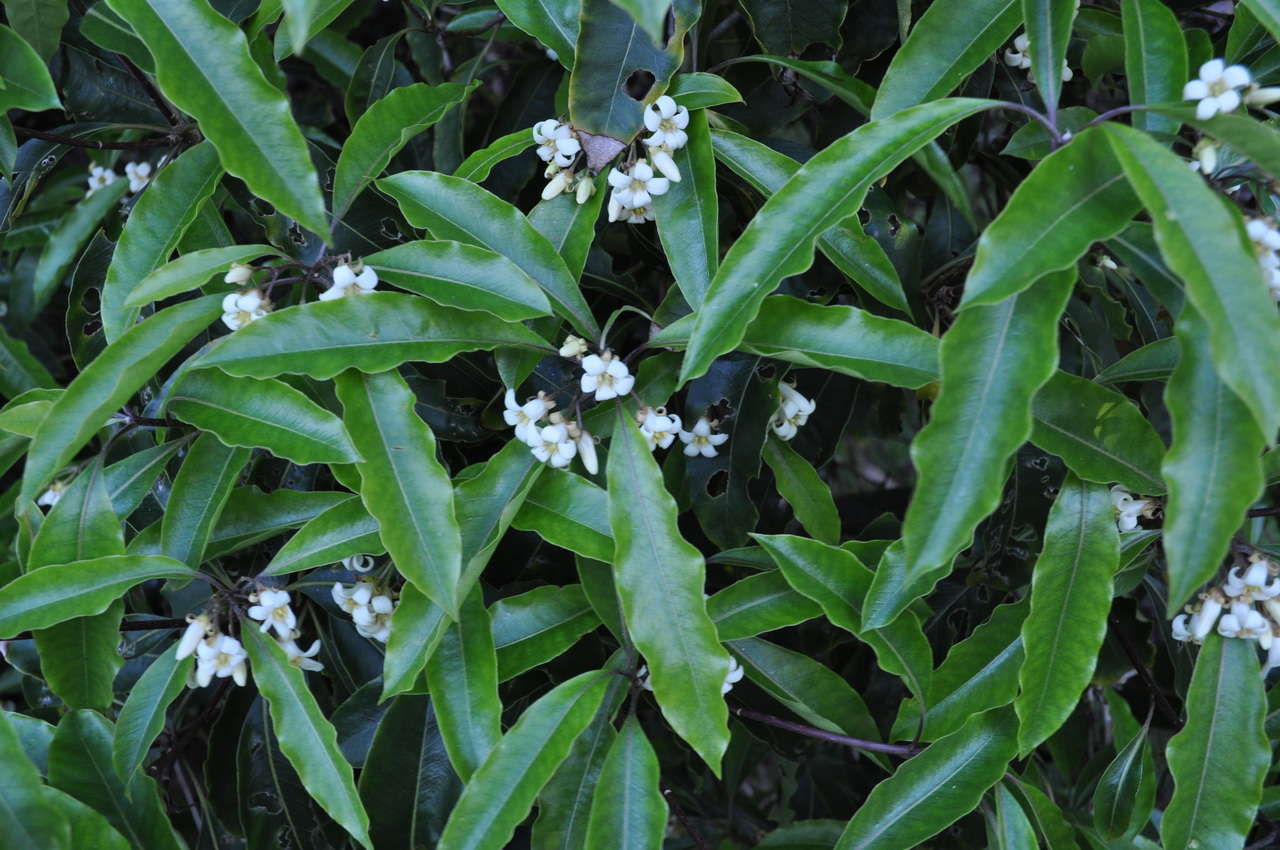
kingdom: Plantae
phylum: Tracheophyta
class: Magnoliopsida
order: Apiales
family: Pittosporaceae
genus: Pittosporum
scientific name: Pittosporum undulatum
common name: Australian cheesewood
